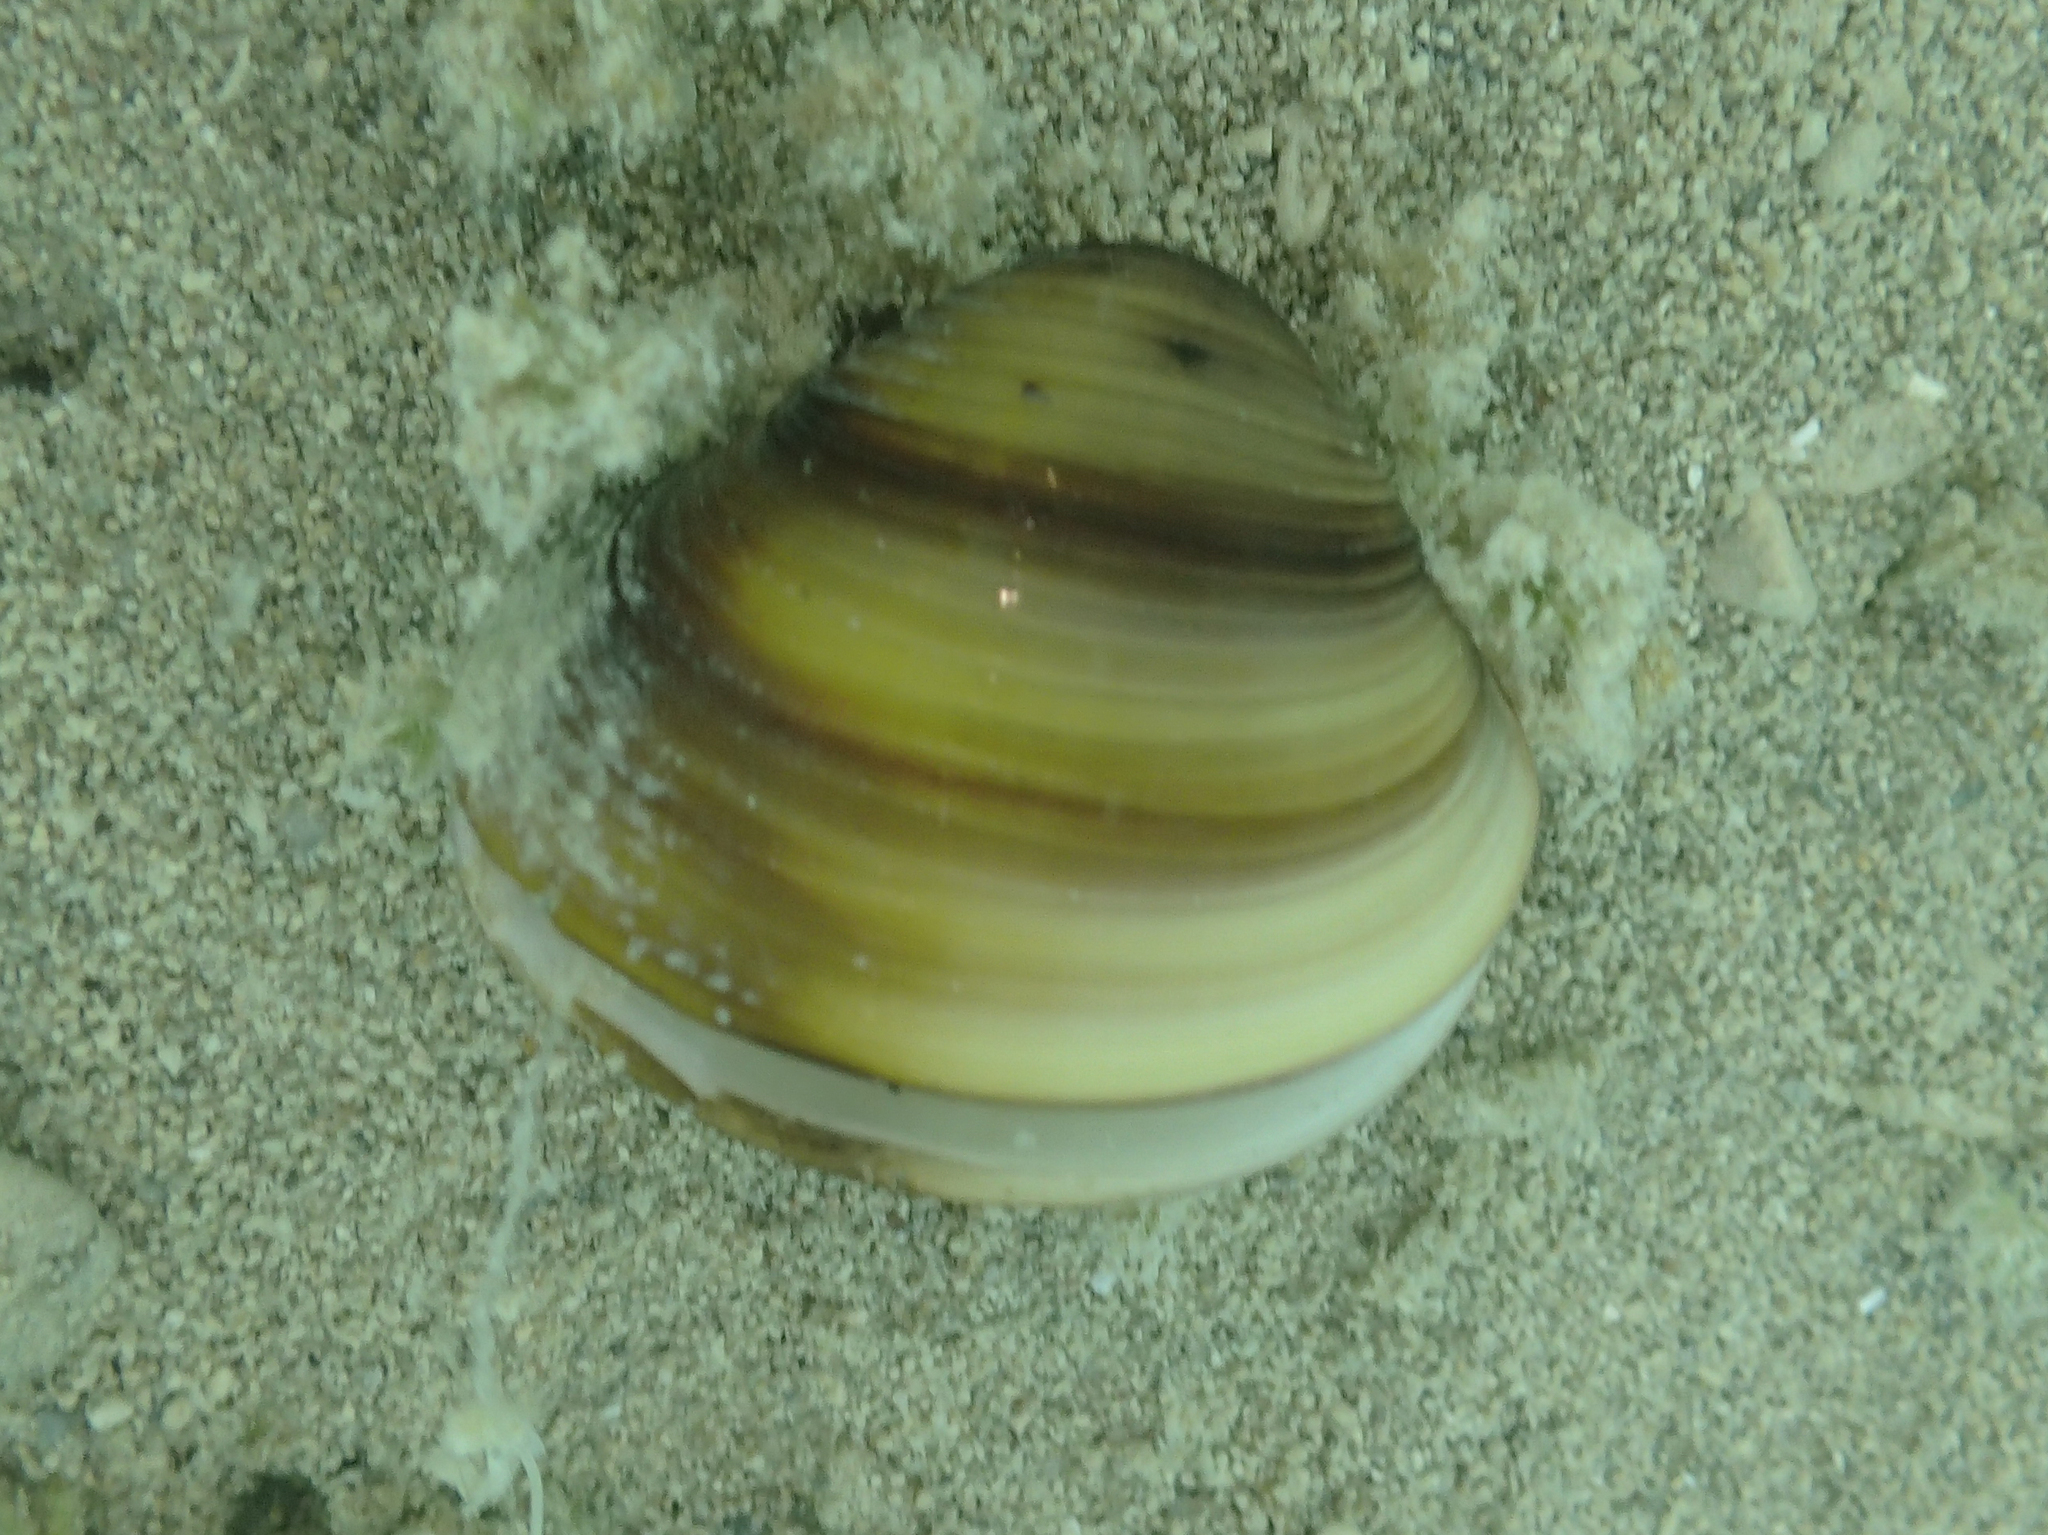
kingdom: Animalia
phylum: Mollusca
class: Bivalvia
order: Venerida
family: Cyrenidae
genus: Corbicula
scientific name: Corbicula fluminea
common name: Asian clam
